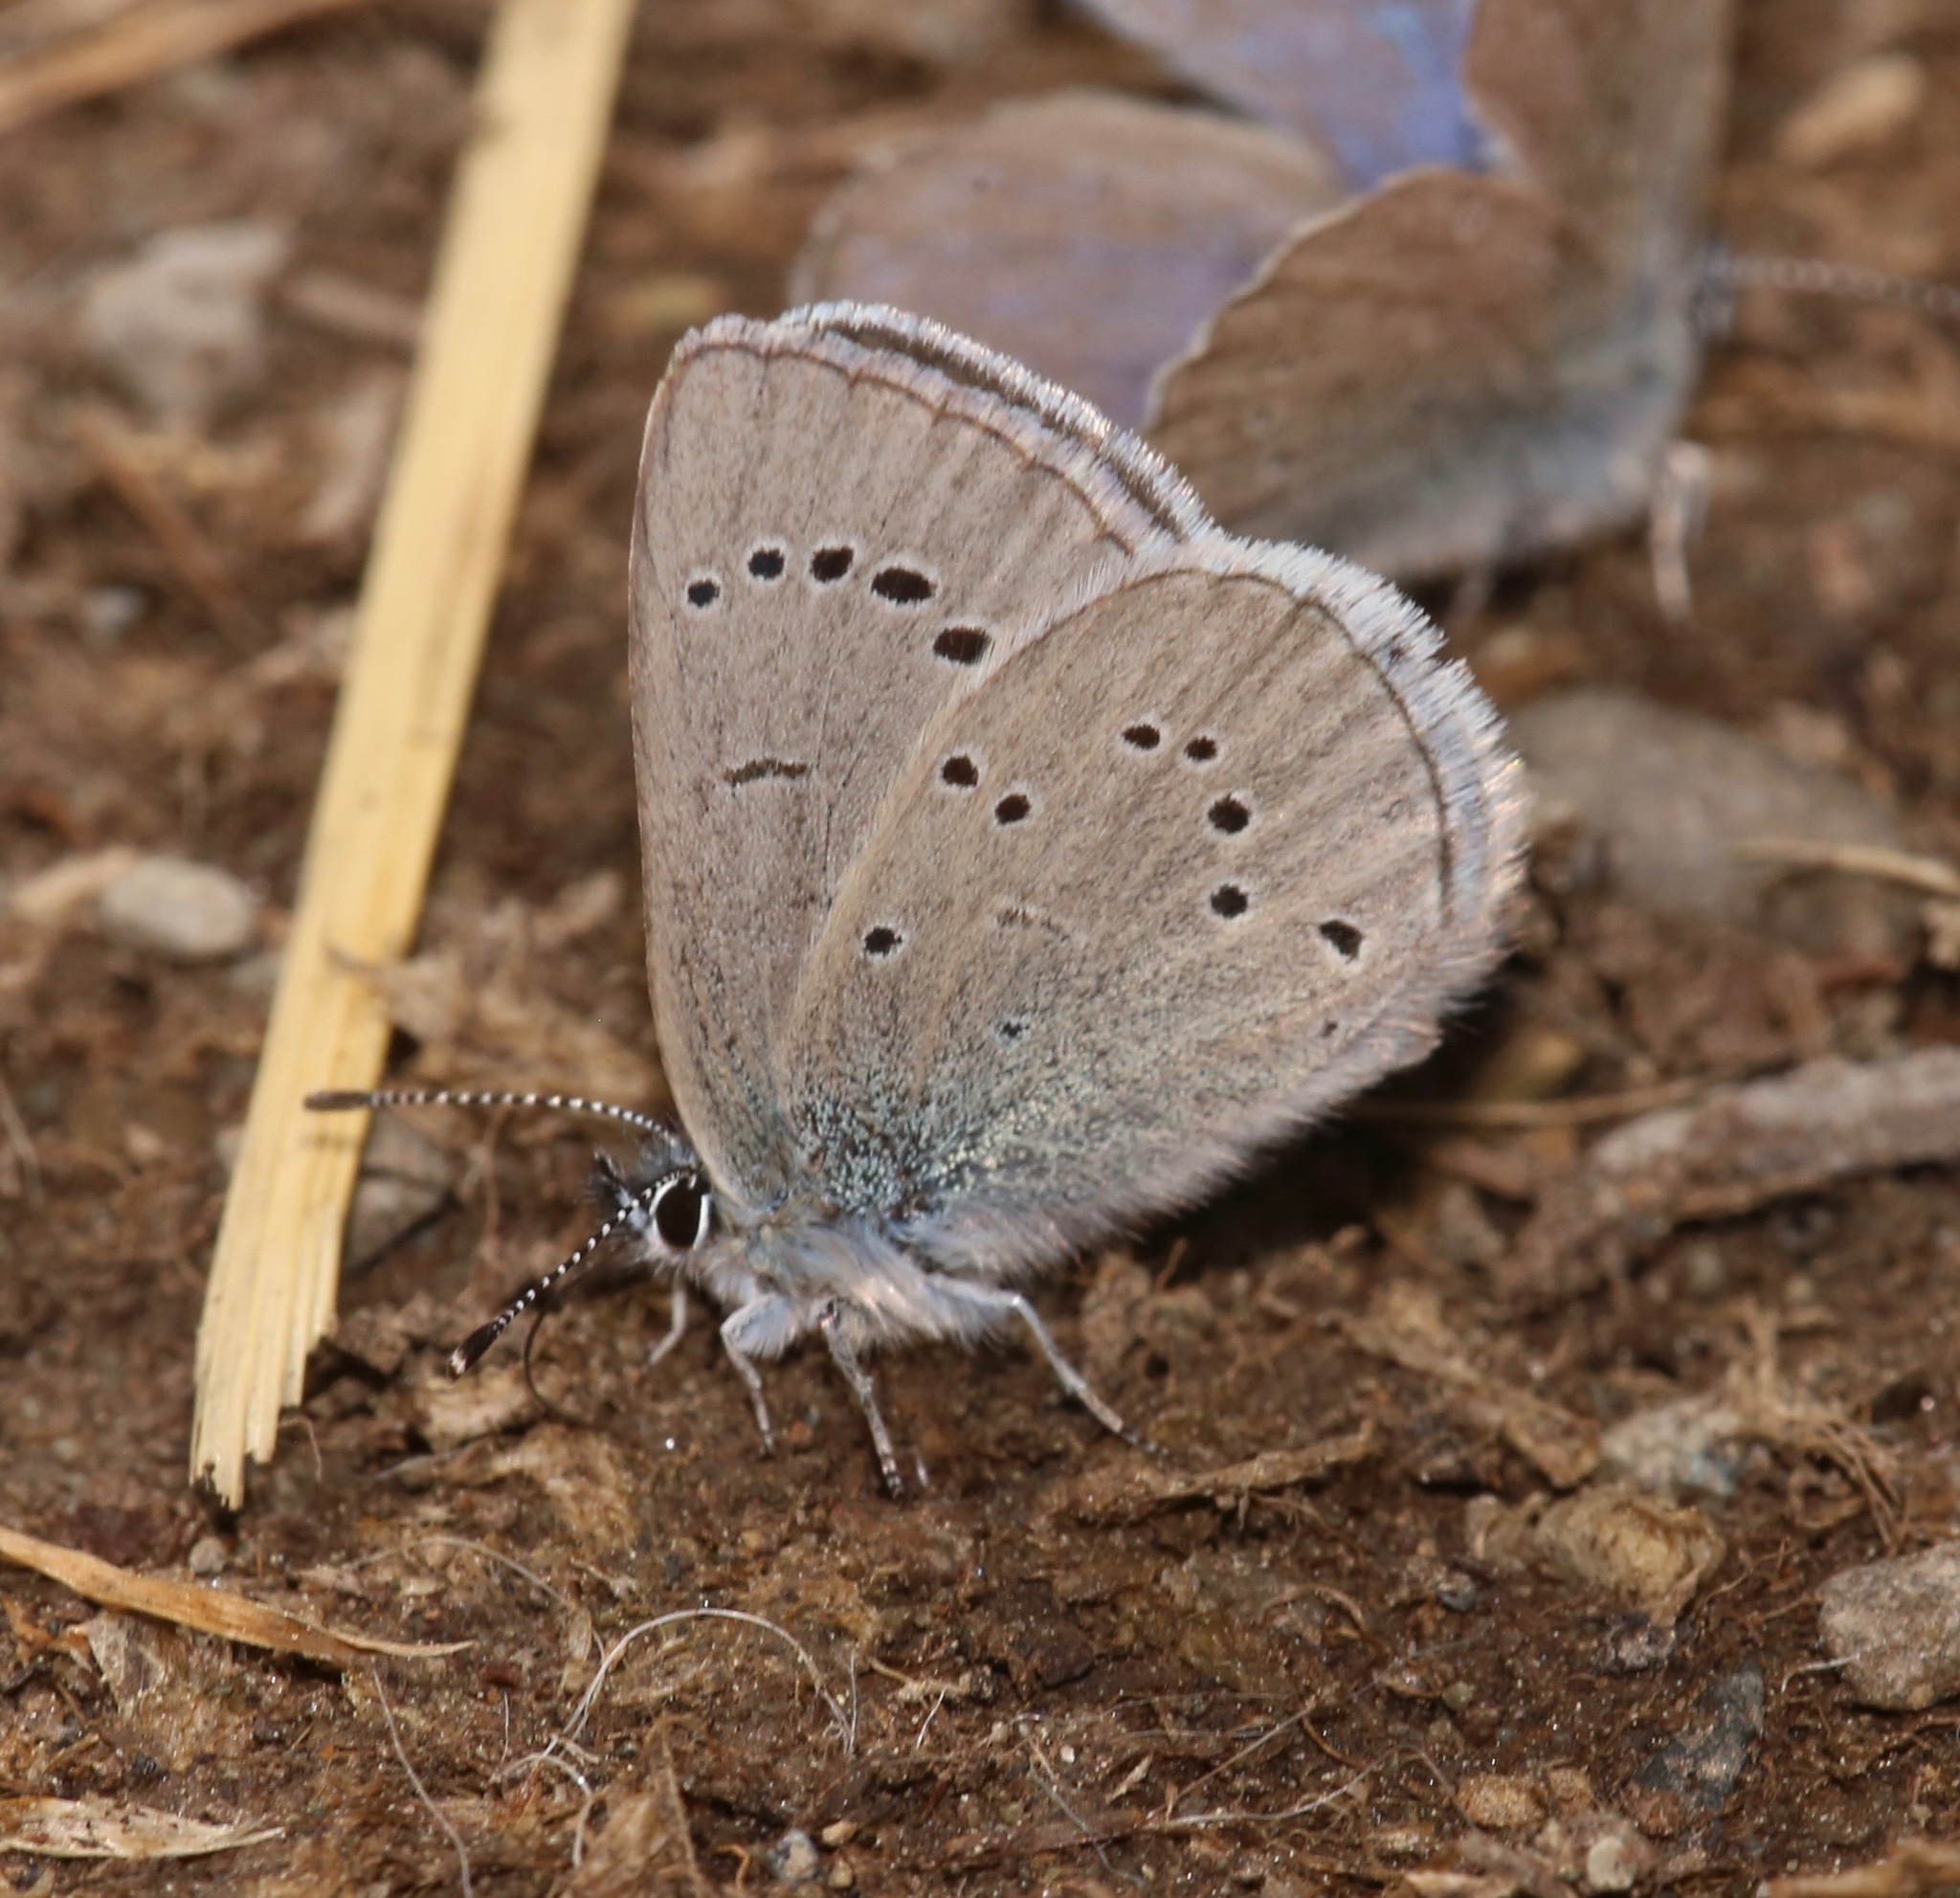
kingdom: Animalia
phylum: Arthropoda
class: Insecta
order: Lepidoptera
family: Lycaenidae
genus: Glaucopsyche
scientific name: Glaucopsyche lygdamus
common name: Silvery blue
